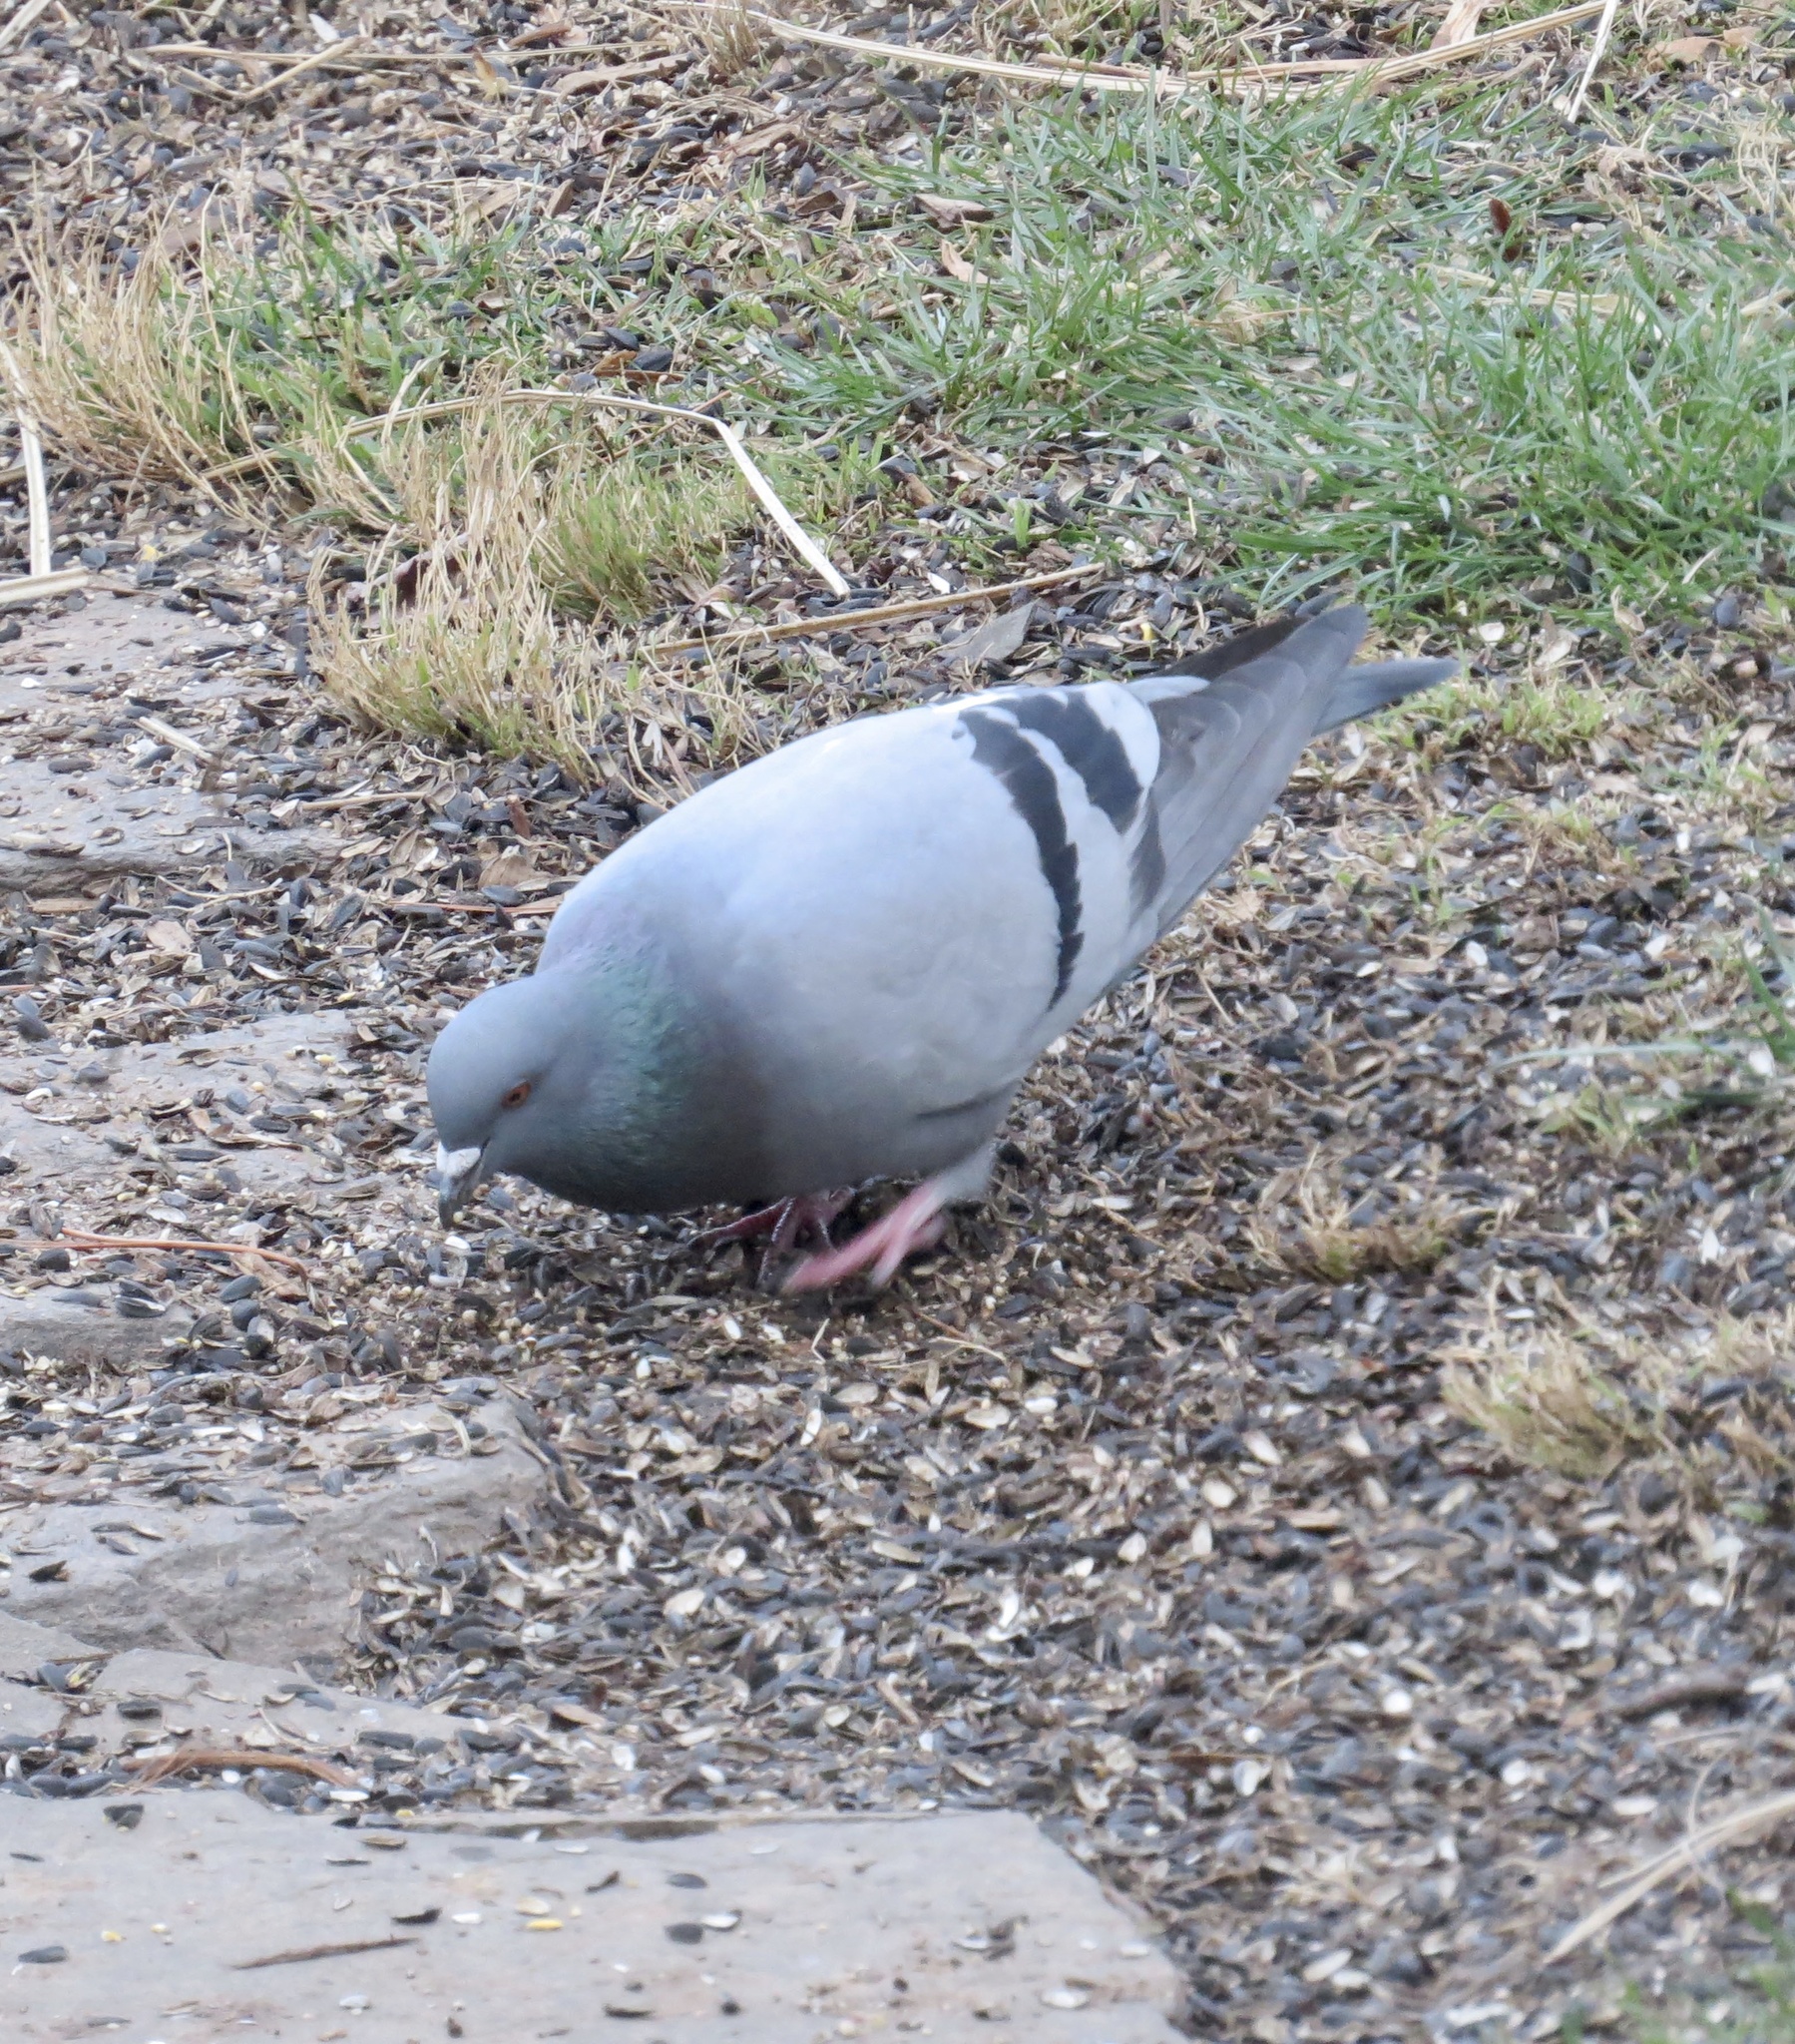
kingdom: Animalia
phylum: Chordata
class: Aves
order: Columbiformes
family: Columbidae
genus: Columba
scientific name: Columba livia
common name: Rock pigeon
